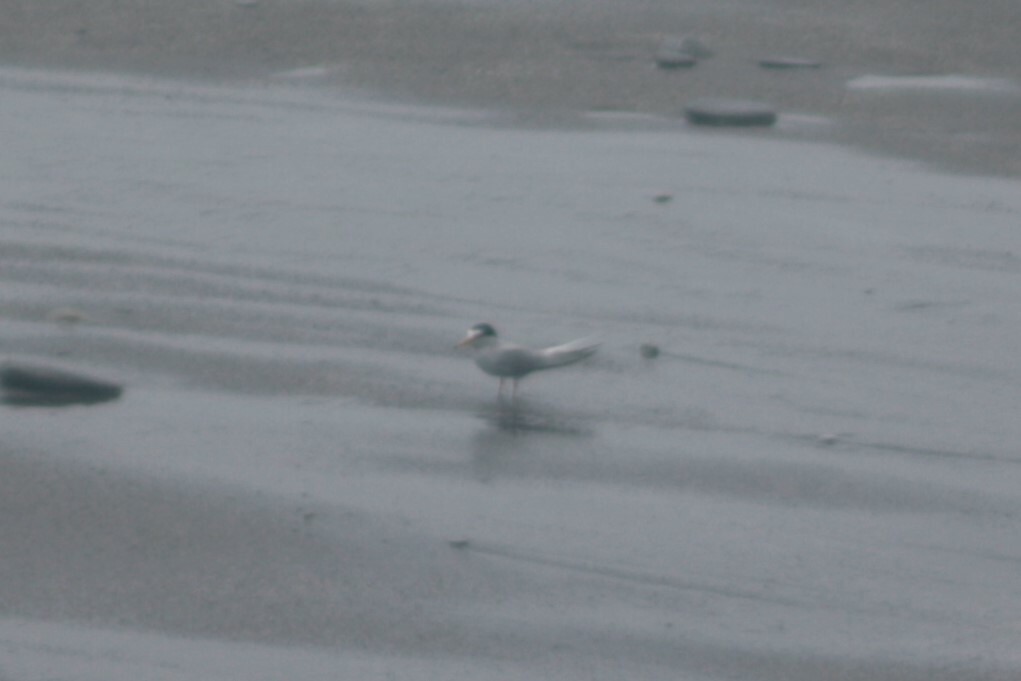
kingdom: Animalia
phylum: Chordata
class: Aves
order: Charadriiformes
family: Laridae
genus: Sternula
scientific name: Sternula albifrons
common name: Little tern
